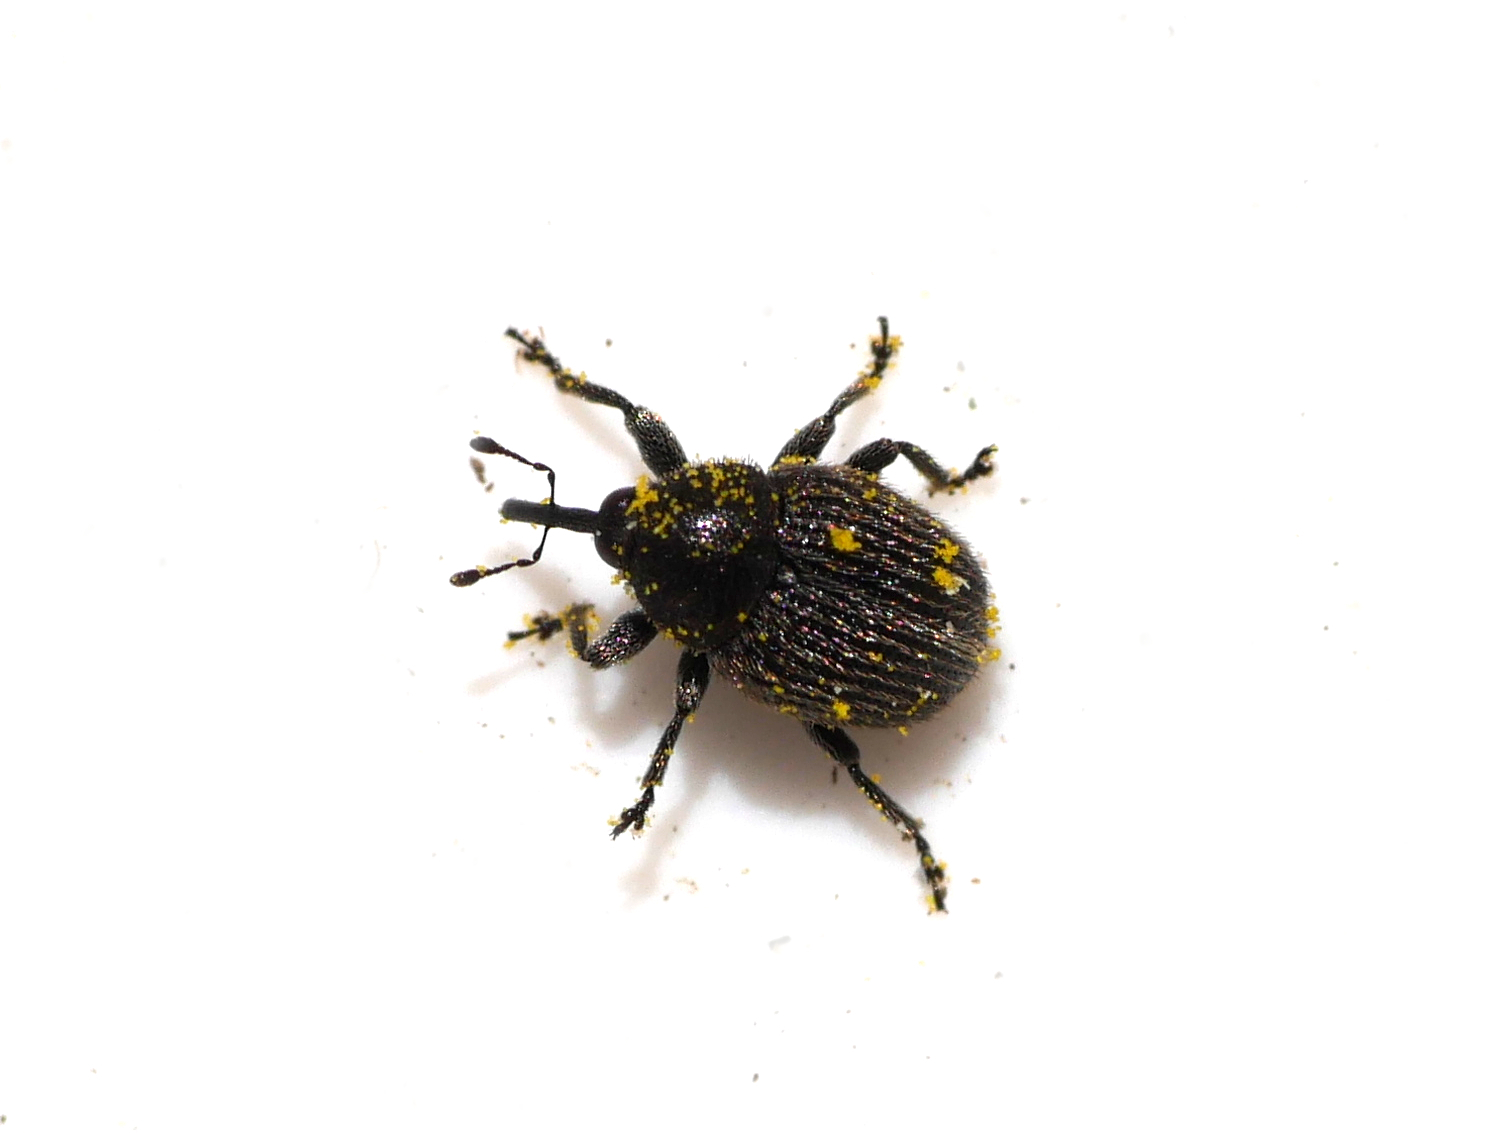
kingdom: Animalia
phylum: Arthropoda
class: Insecta
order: Coleoptera
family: Curculionidae
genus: Cleopomiarus
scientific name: Cleopomiarus graminis
